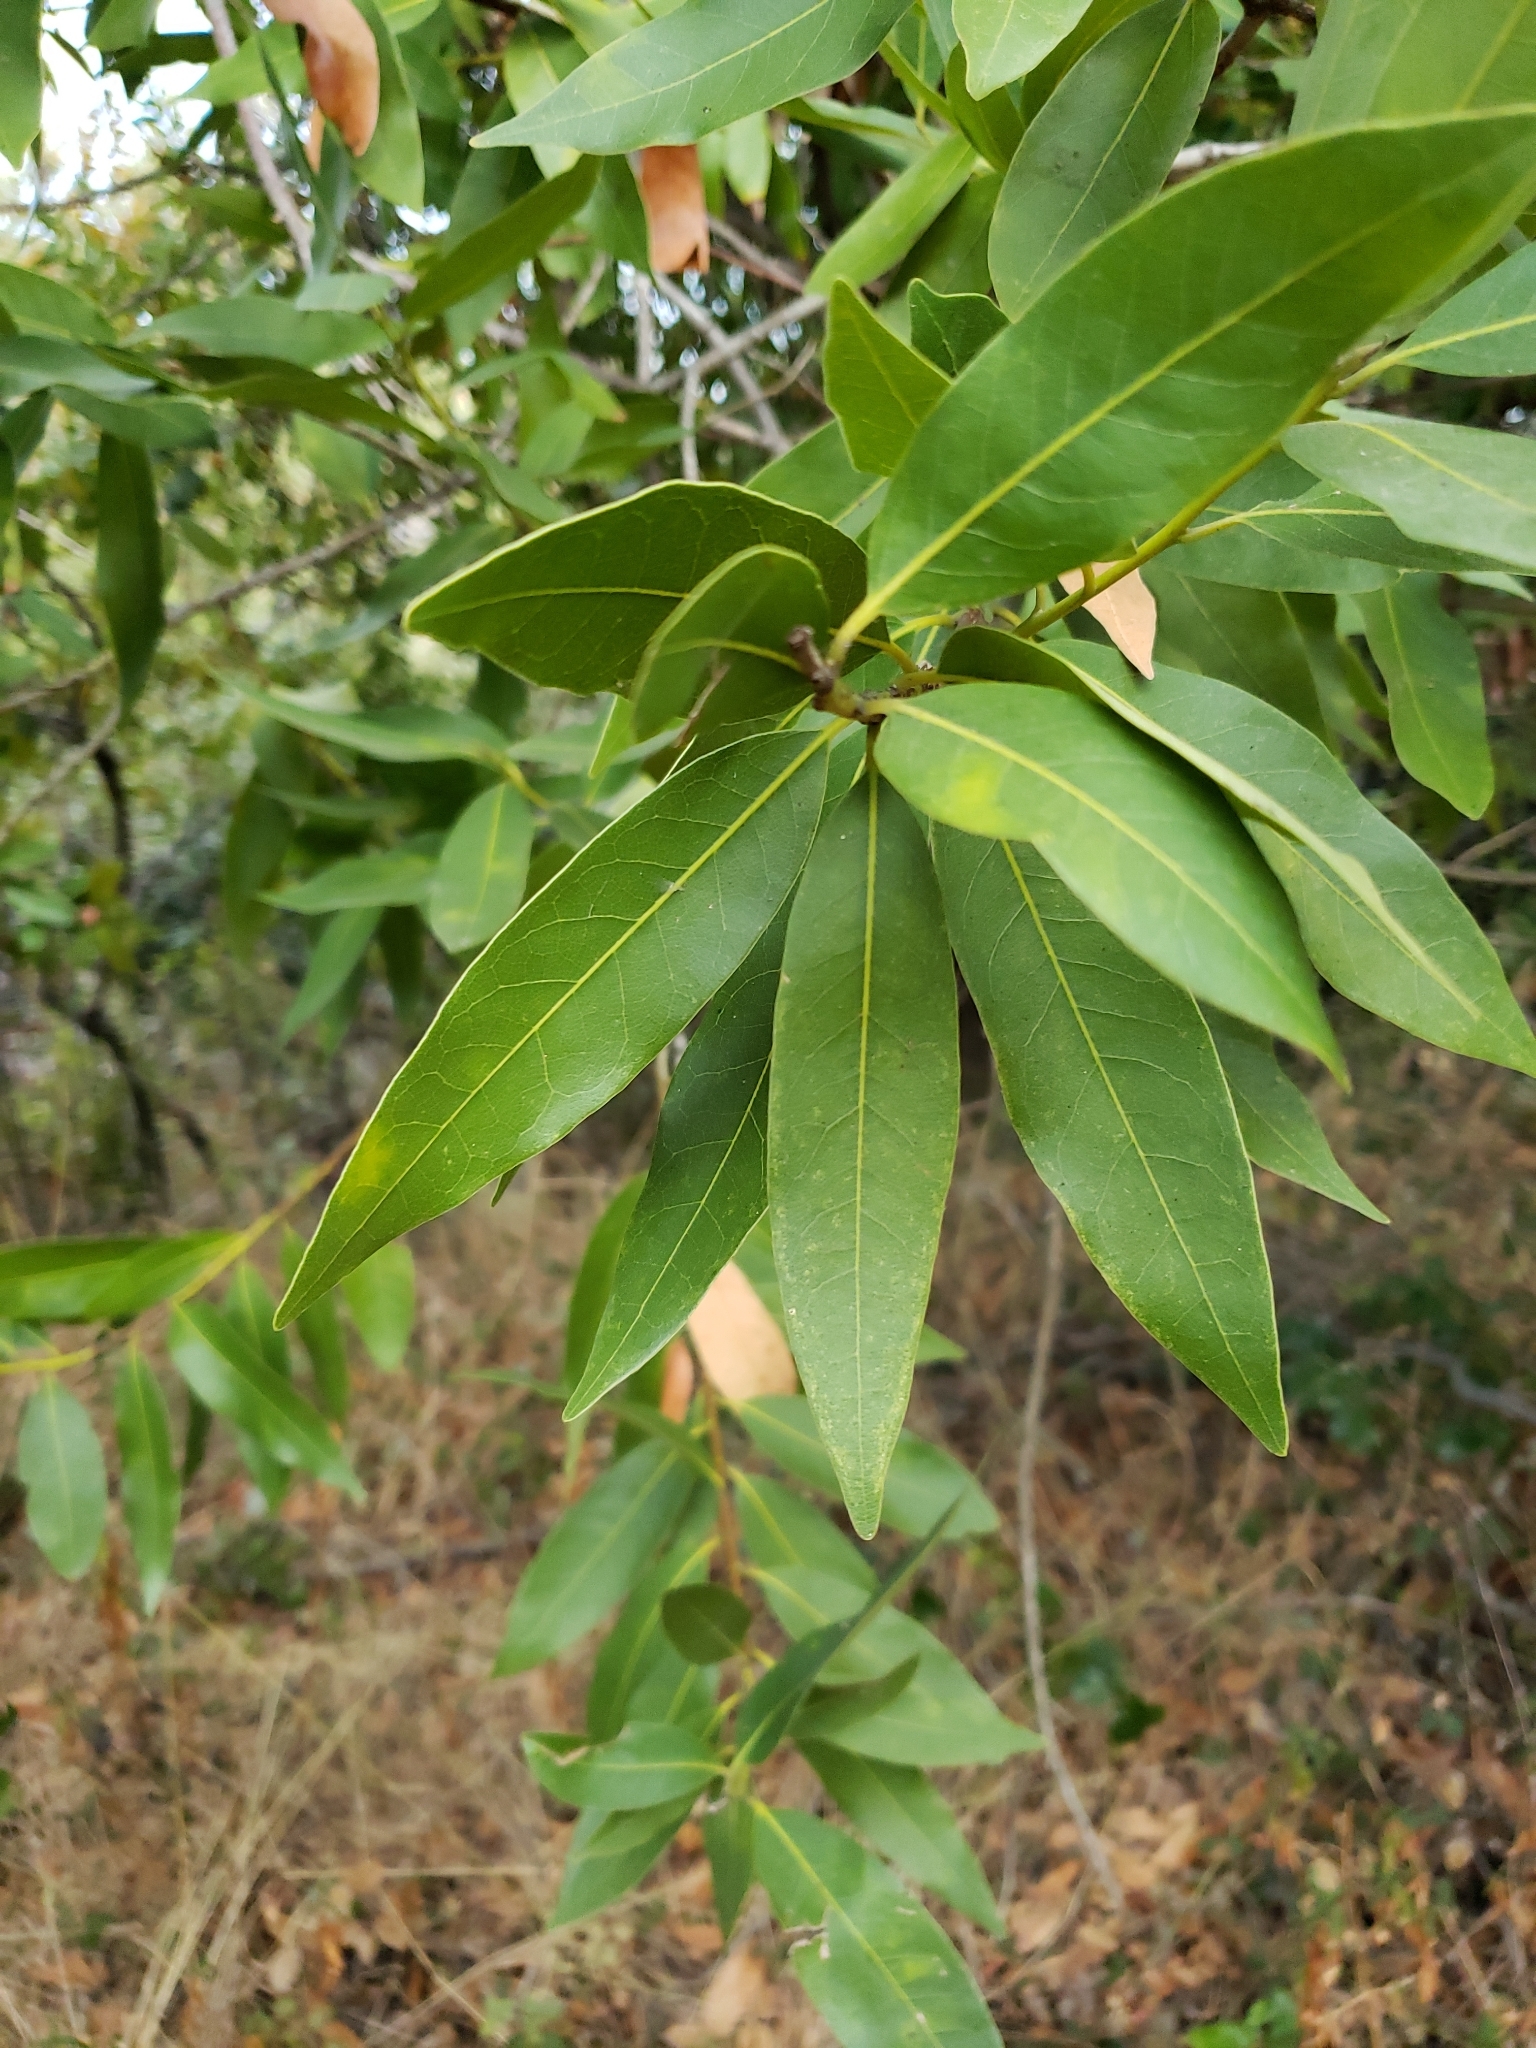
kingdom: Plantae
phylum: Tracheophyta
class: Magnoliopsida
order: Laurales
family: Lauraceae
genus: Umbellularia
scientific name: Umbellularia californica
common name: California bay
